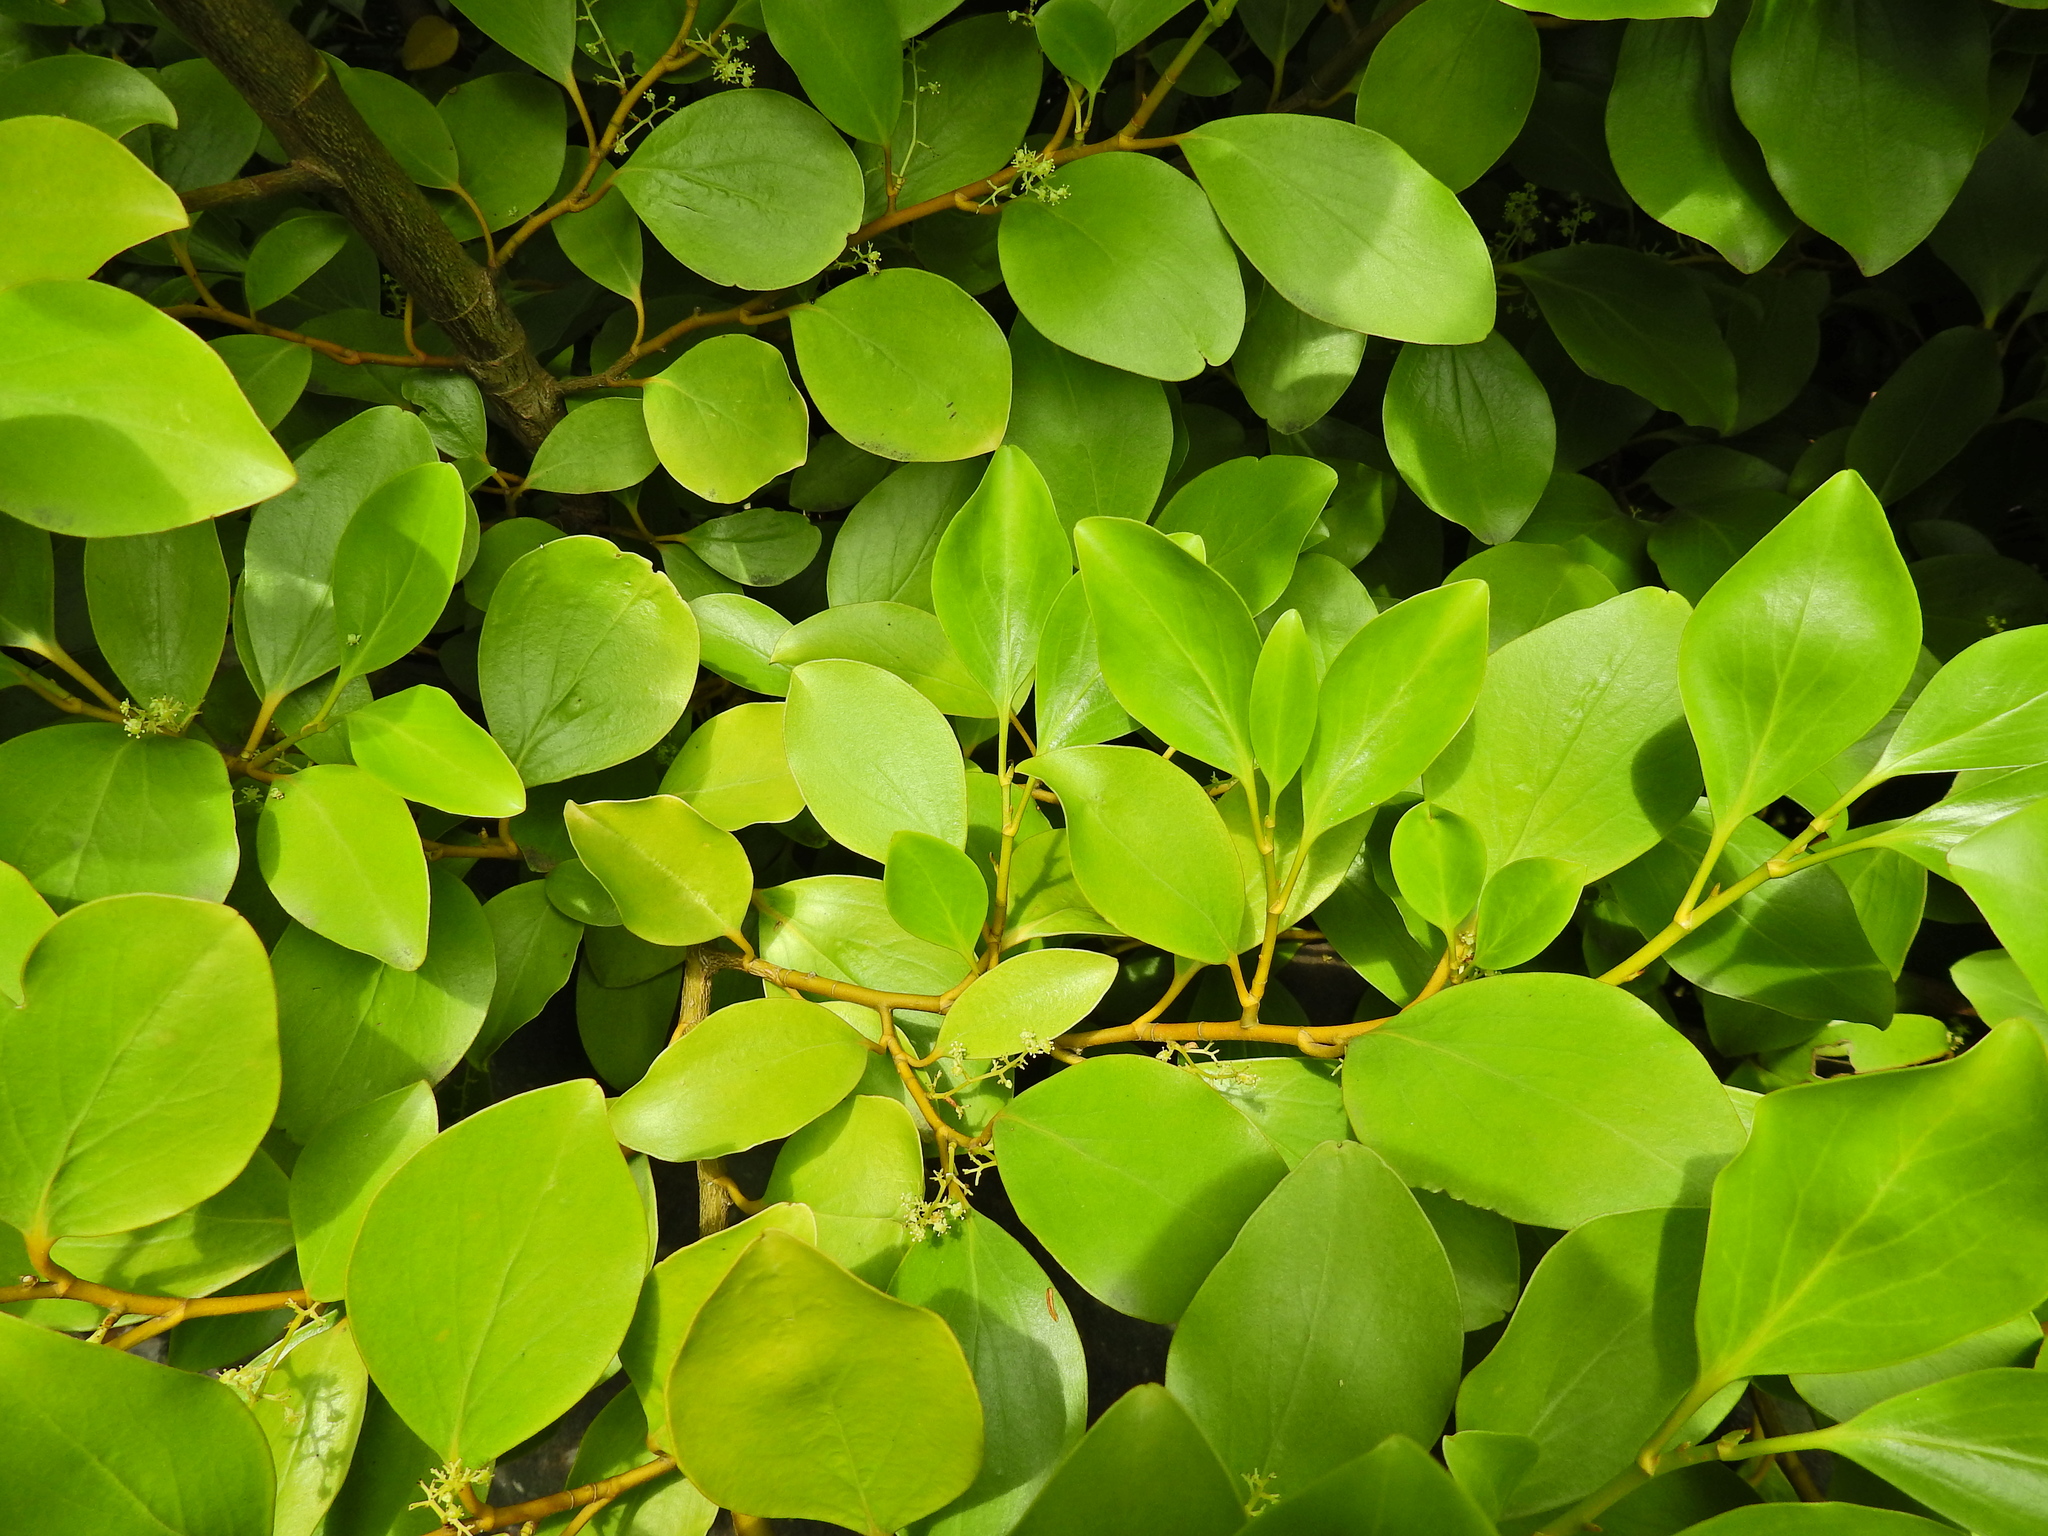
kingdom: Plantae
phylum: Tracheophyta
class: Magnoliopsida
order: Apiales
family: Griseliniaceae
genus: Griselinia
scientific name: Griselinia littoralis
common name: New zealand broadleaf
